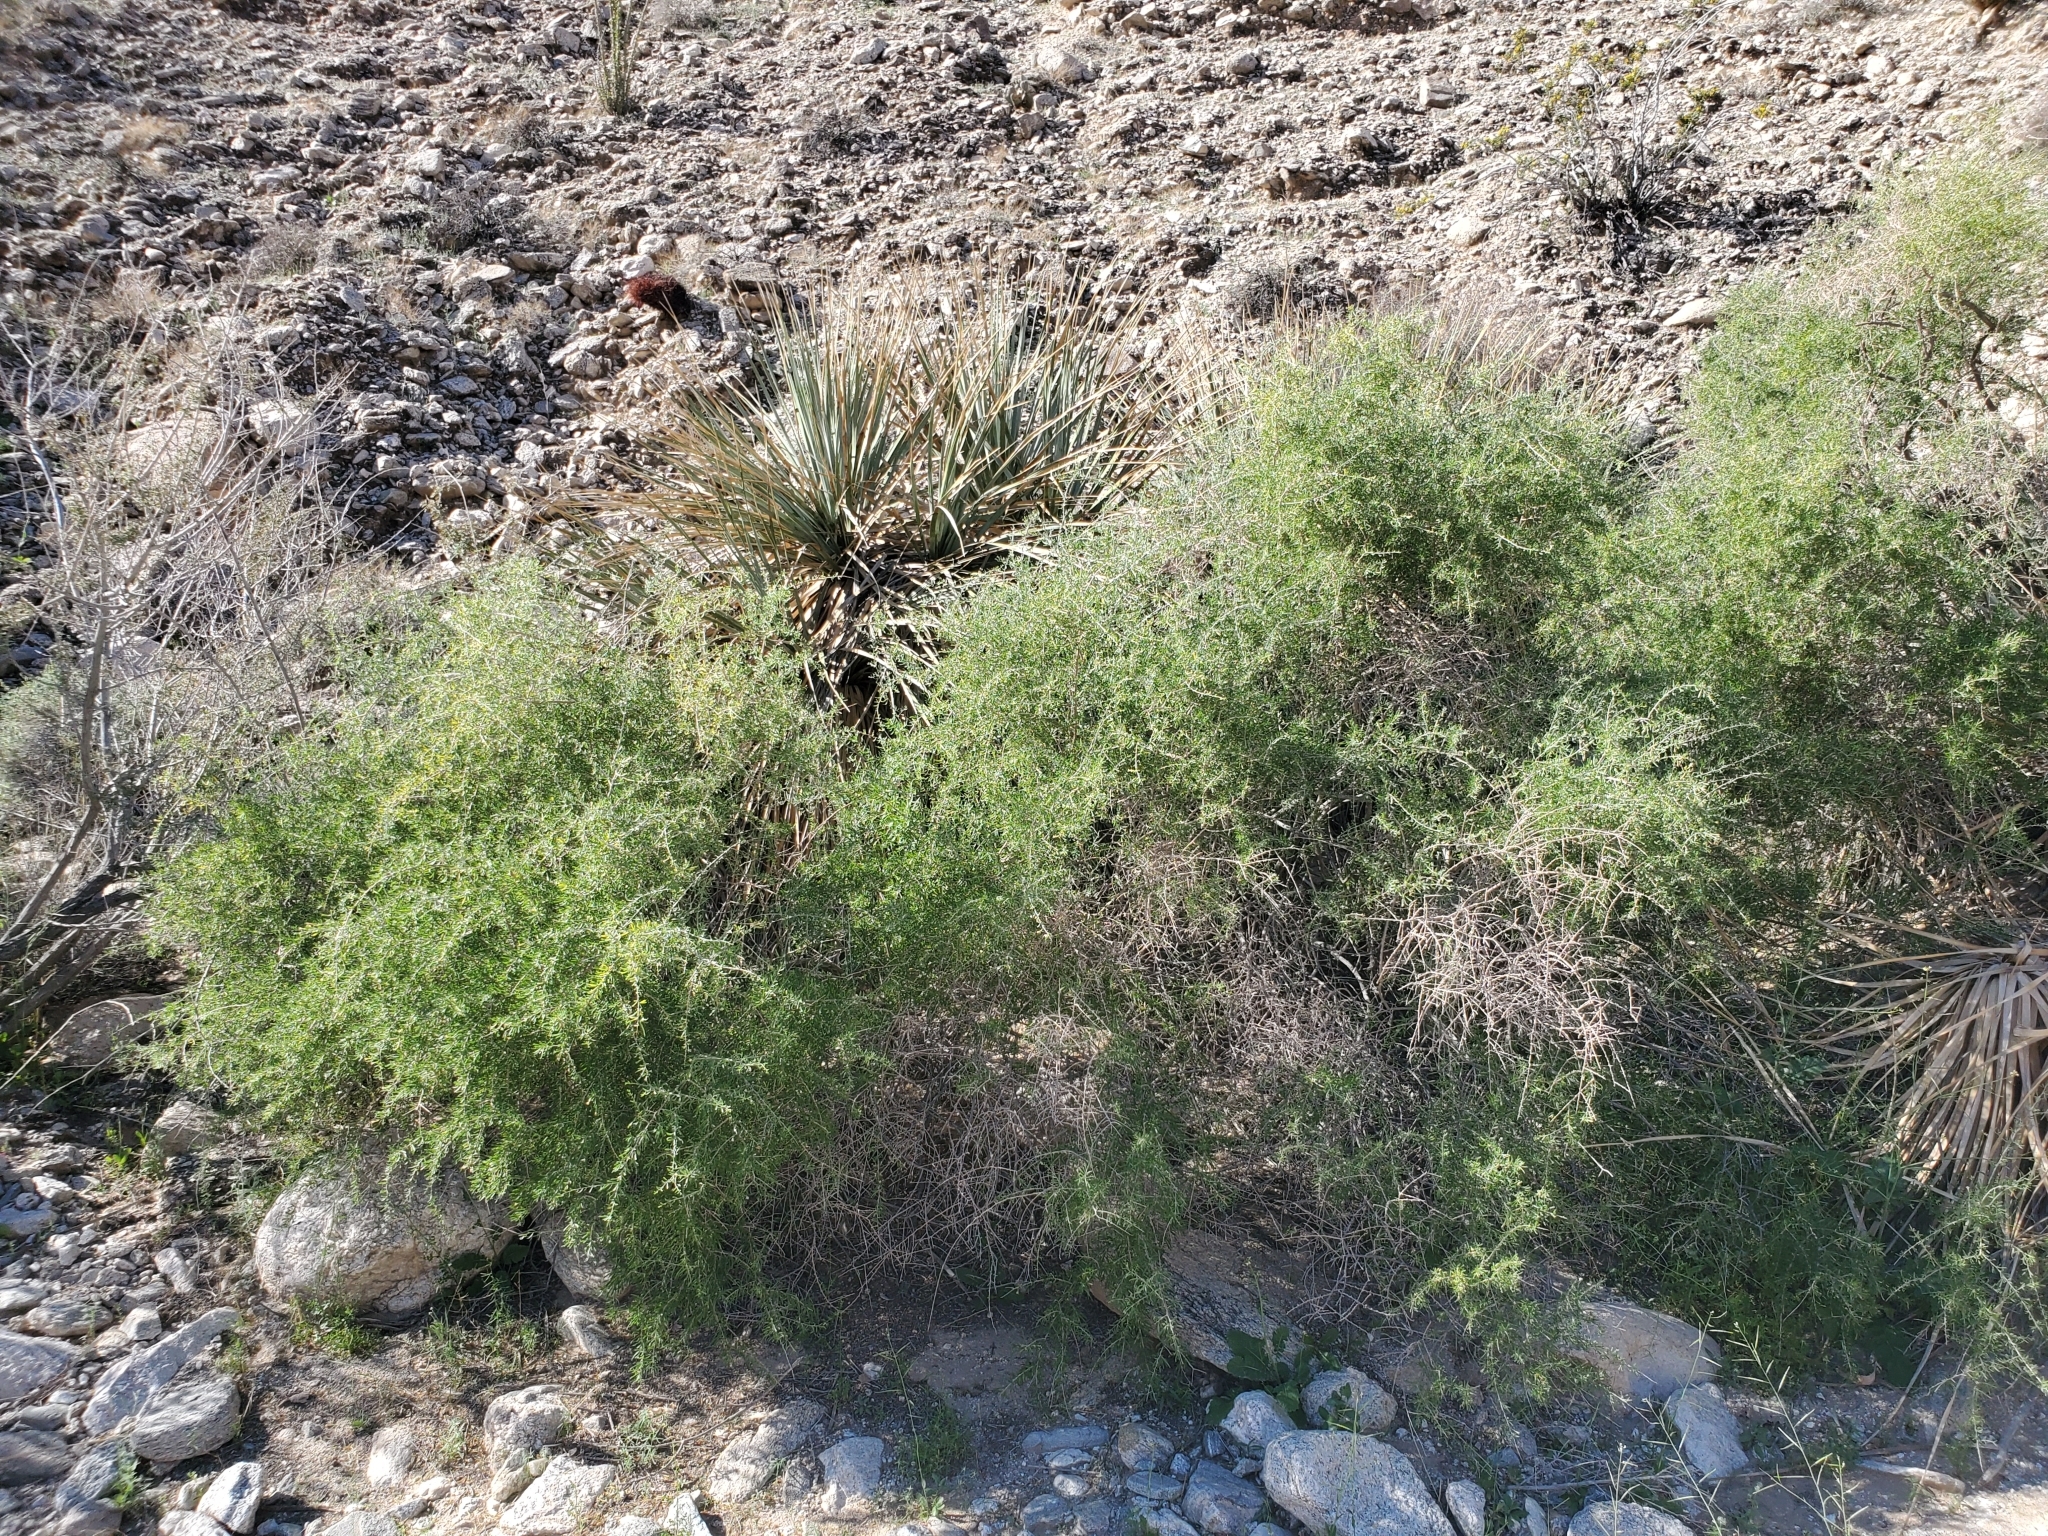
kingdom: Plantae
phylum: Tracheophyta
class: Liliopsida
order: Asparagales
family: Asparagaceae
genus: Nolina
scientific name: Nolina bigelovii
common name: Bigelow bear-grass
